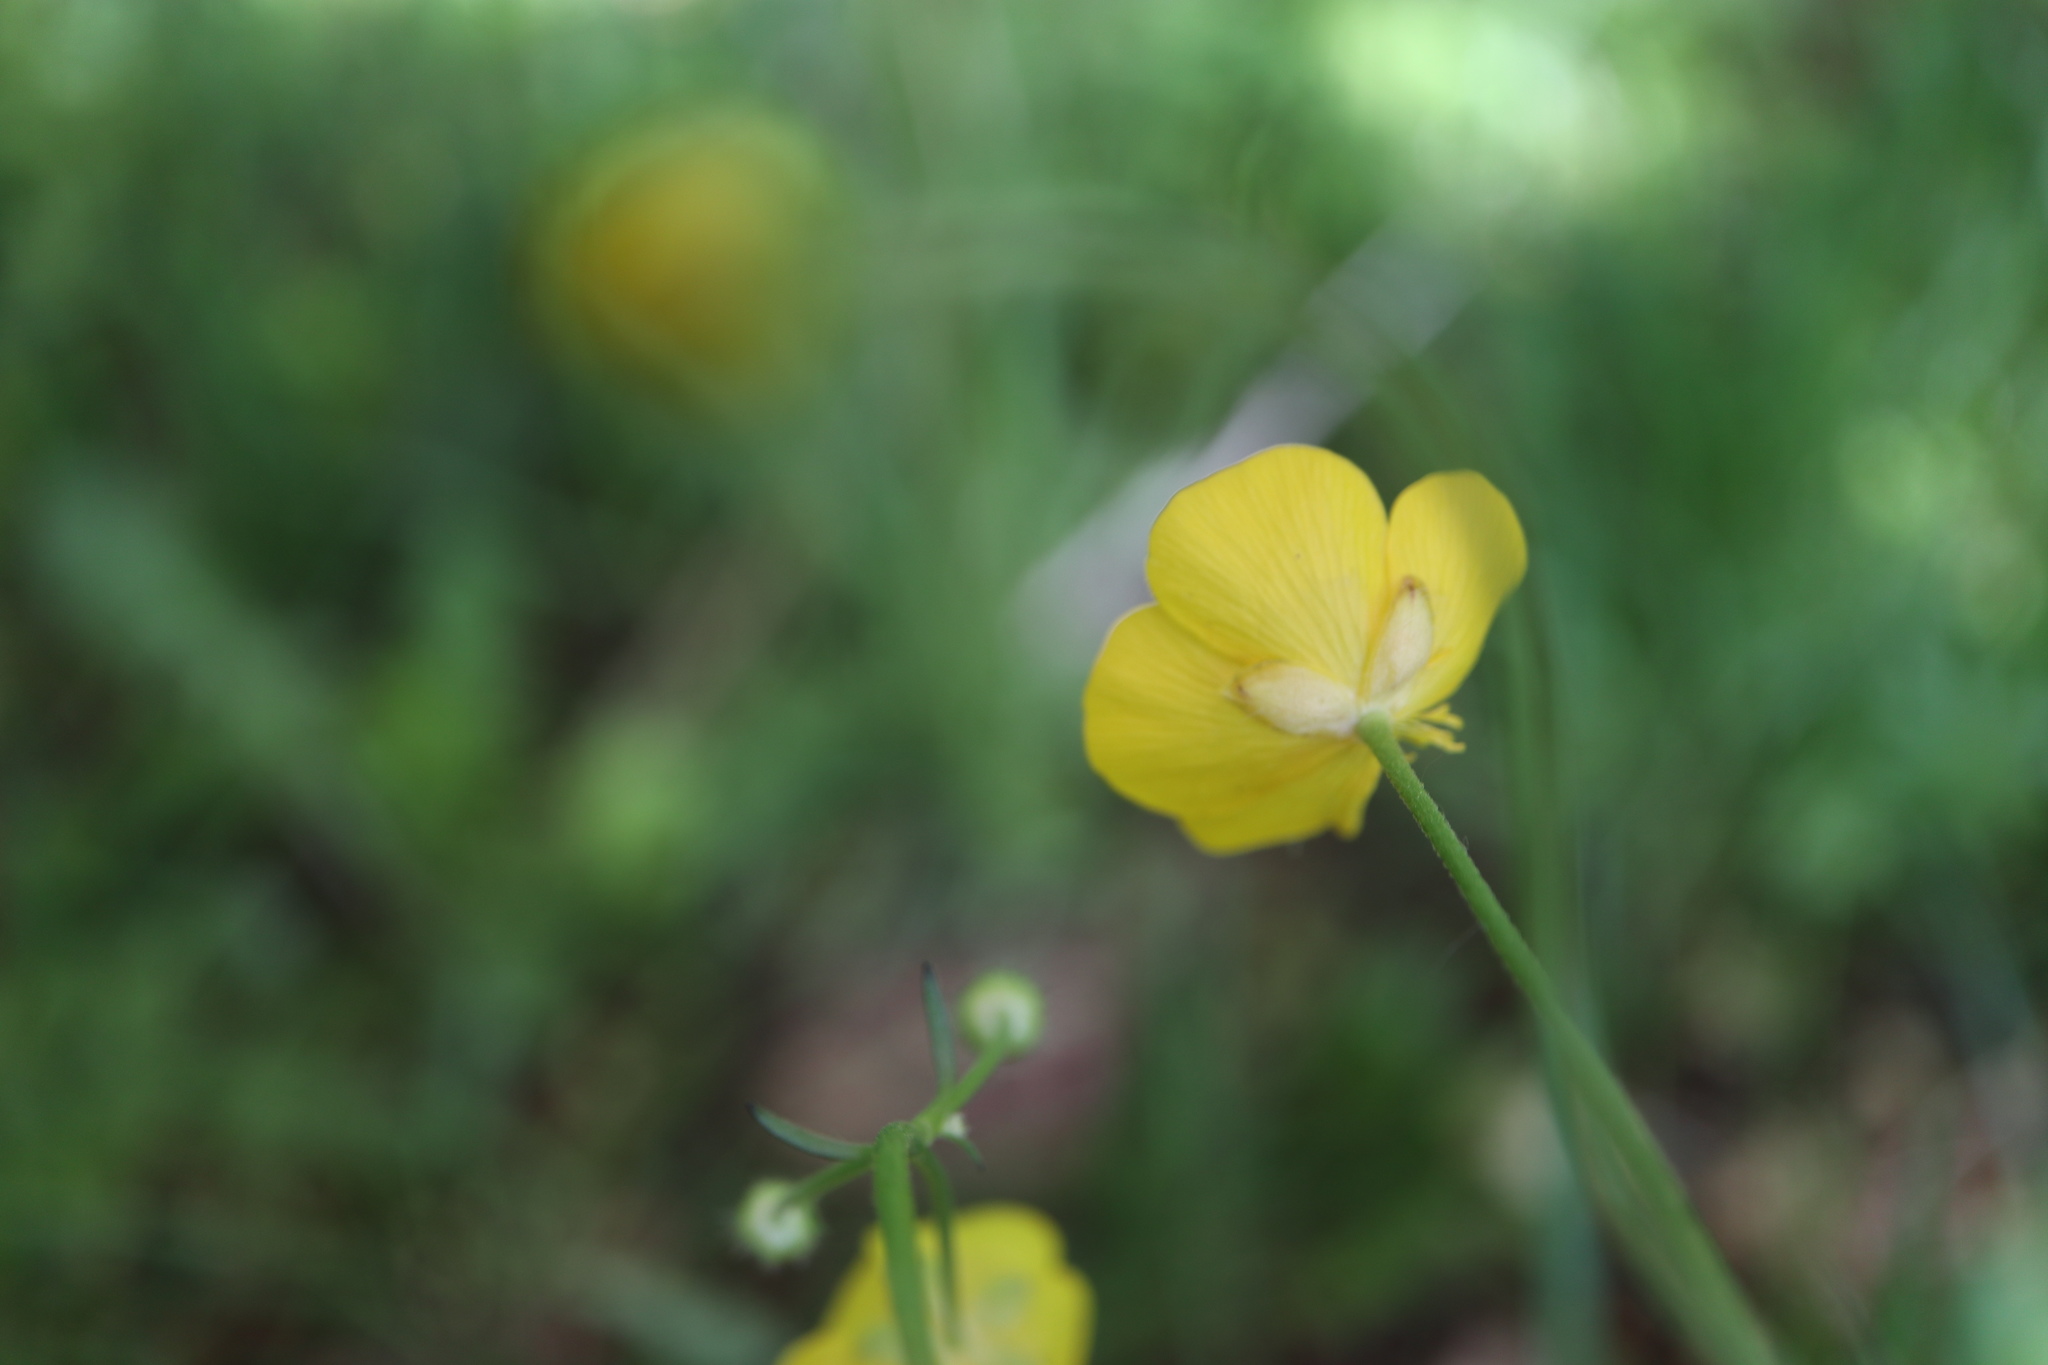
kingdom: Plantae
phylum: Tracheophyta
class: Magnoliopsida
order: Ranunculales
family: Ranunculaceae
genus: Ranunculus
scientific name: Ranunculus acris
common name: Meadow buttercup
